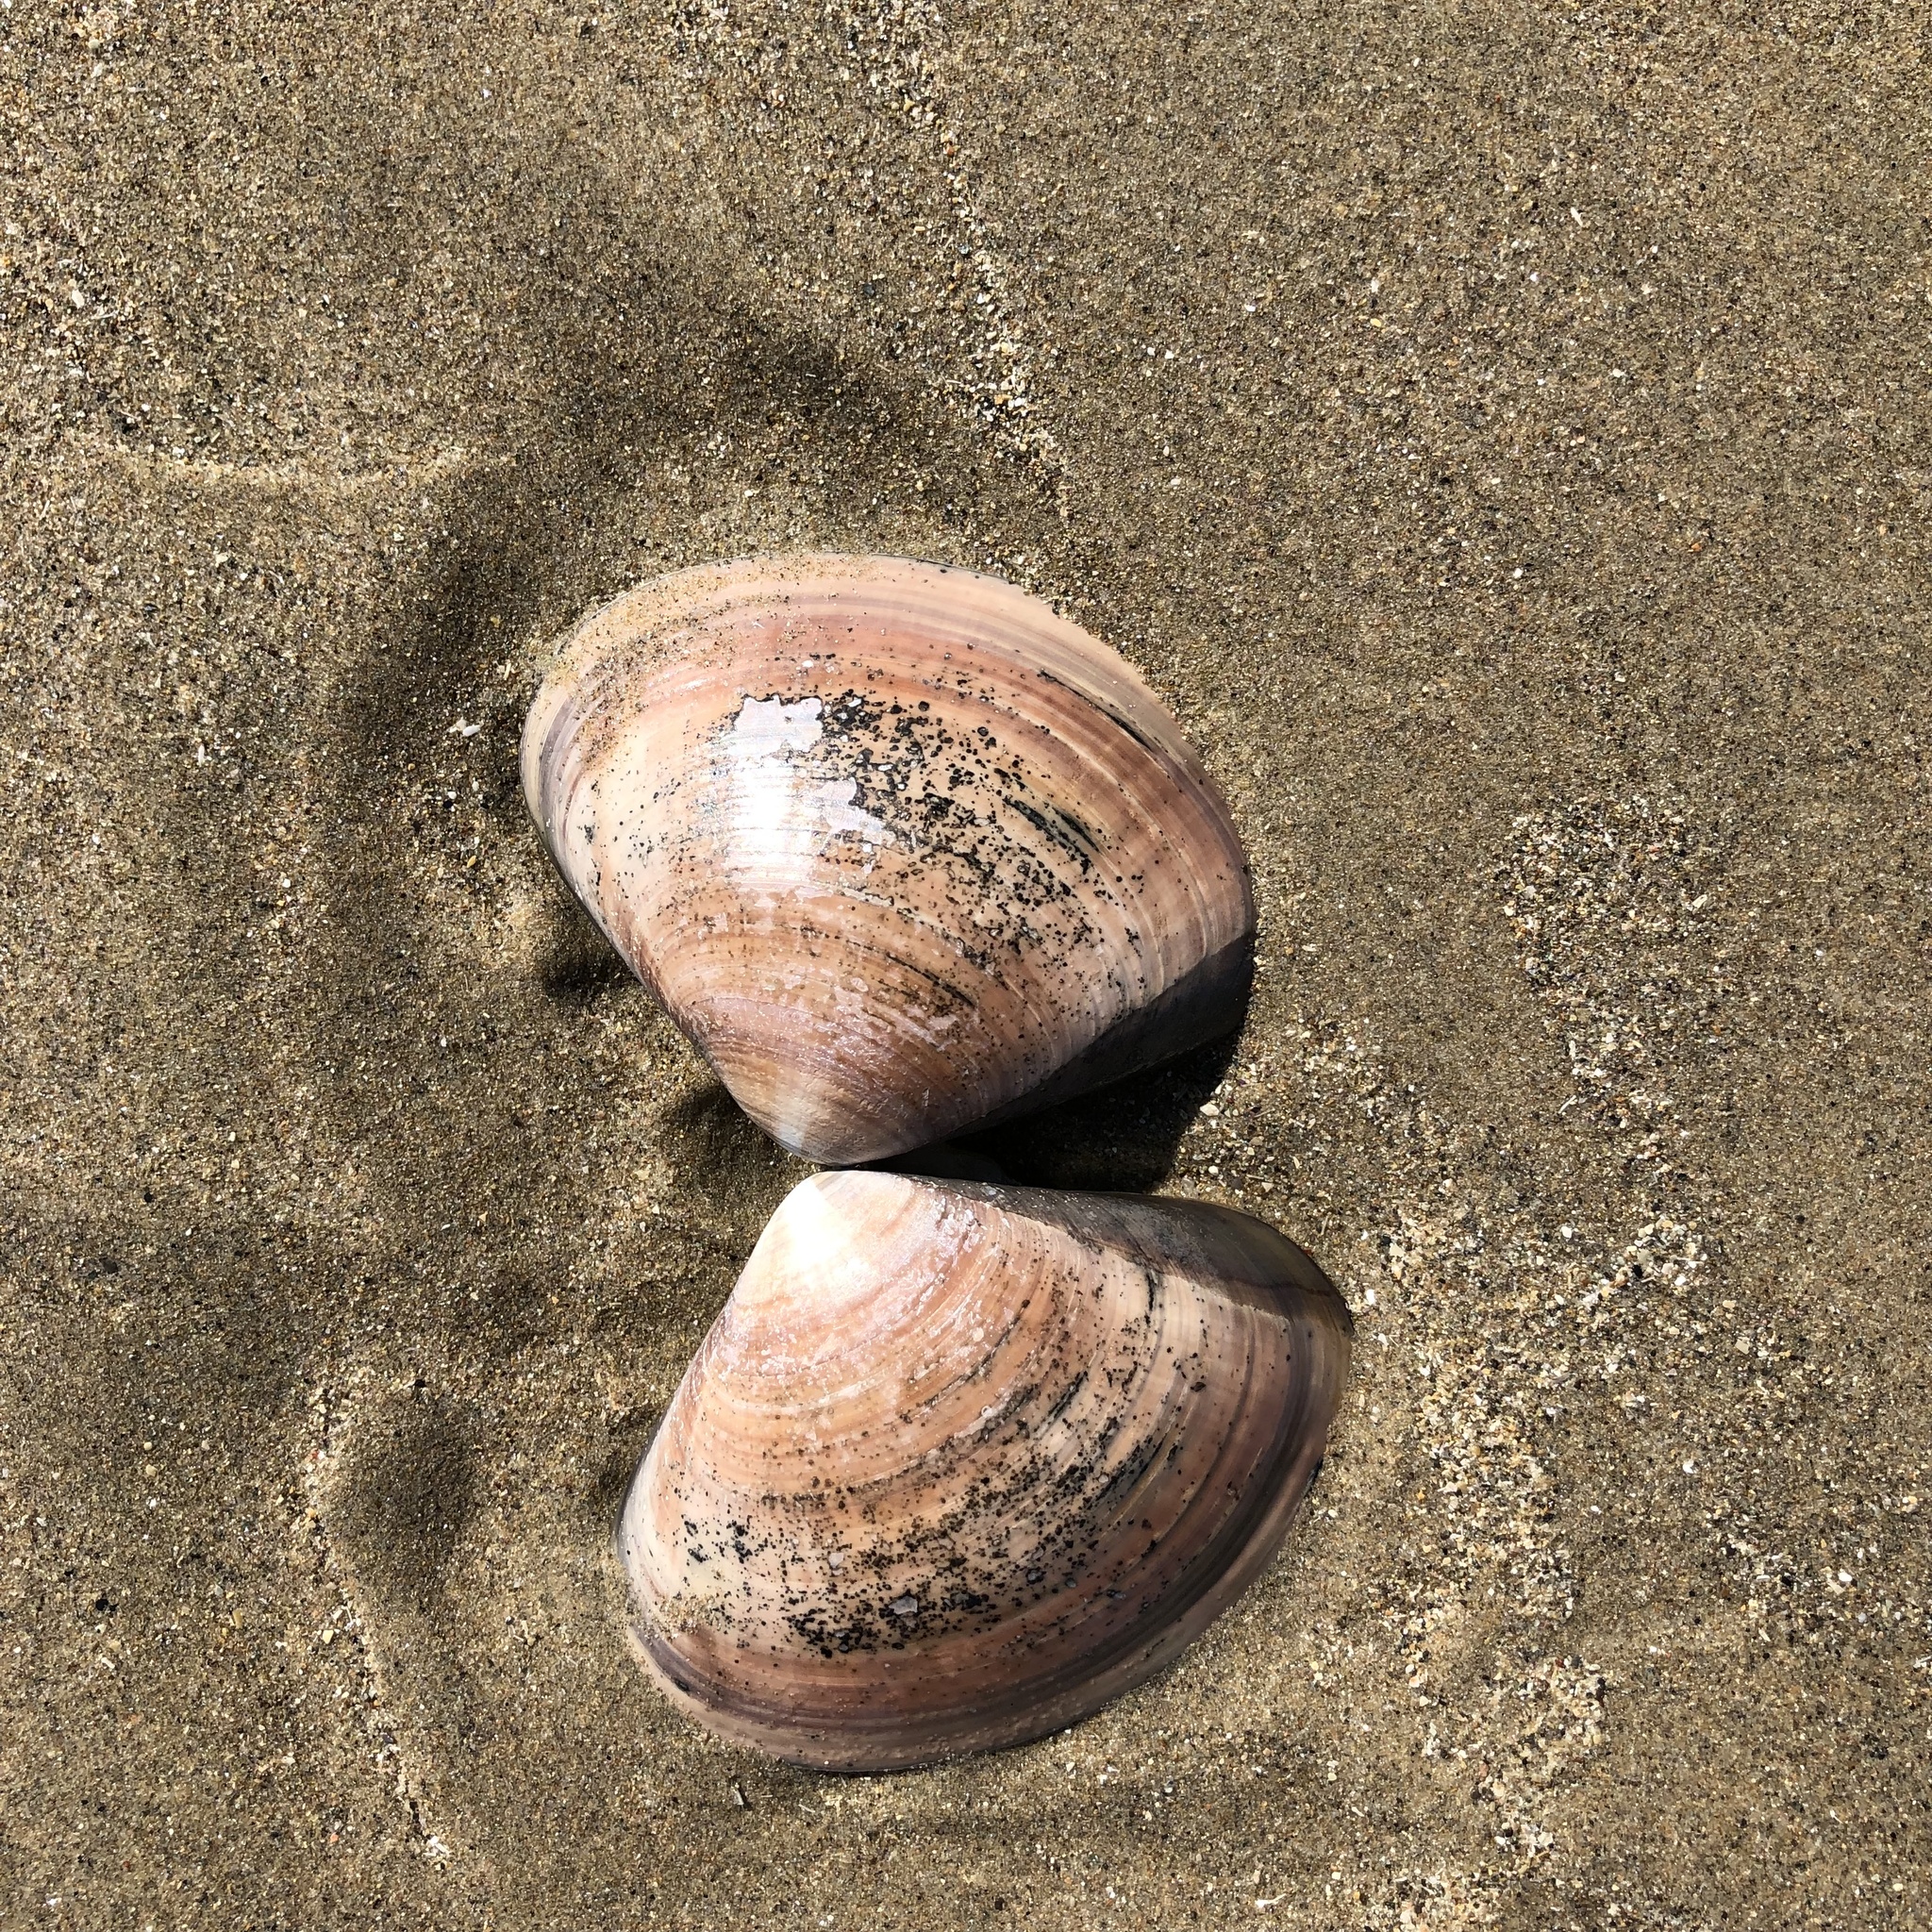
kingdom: Animalia
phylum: Mollusca
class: Bivalvia
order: Venerida
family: Veneridae
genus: Tivela
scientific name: Tivela stultorum
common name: Pismo clam
